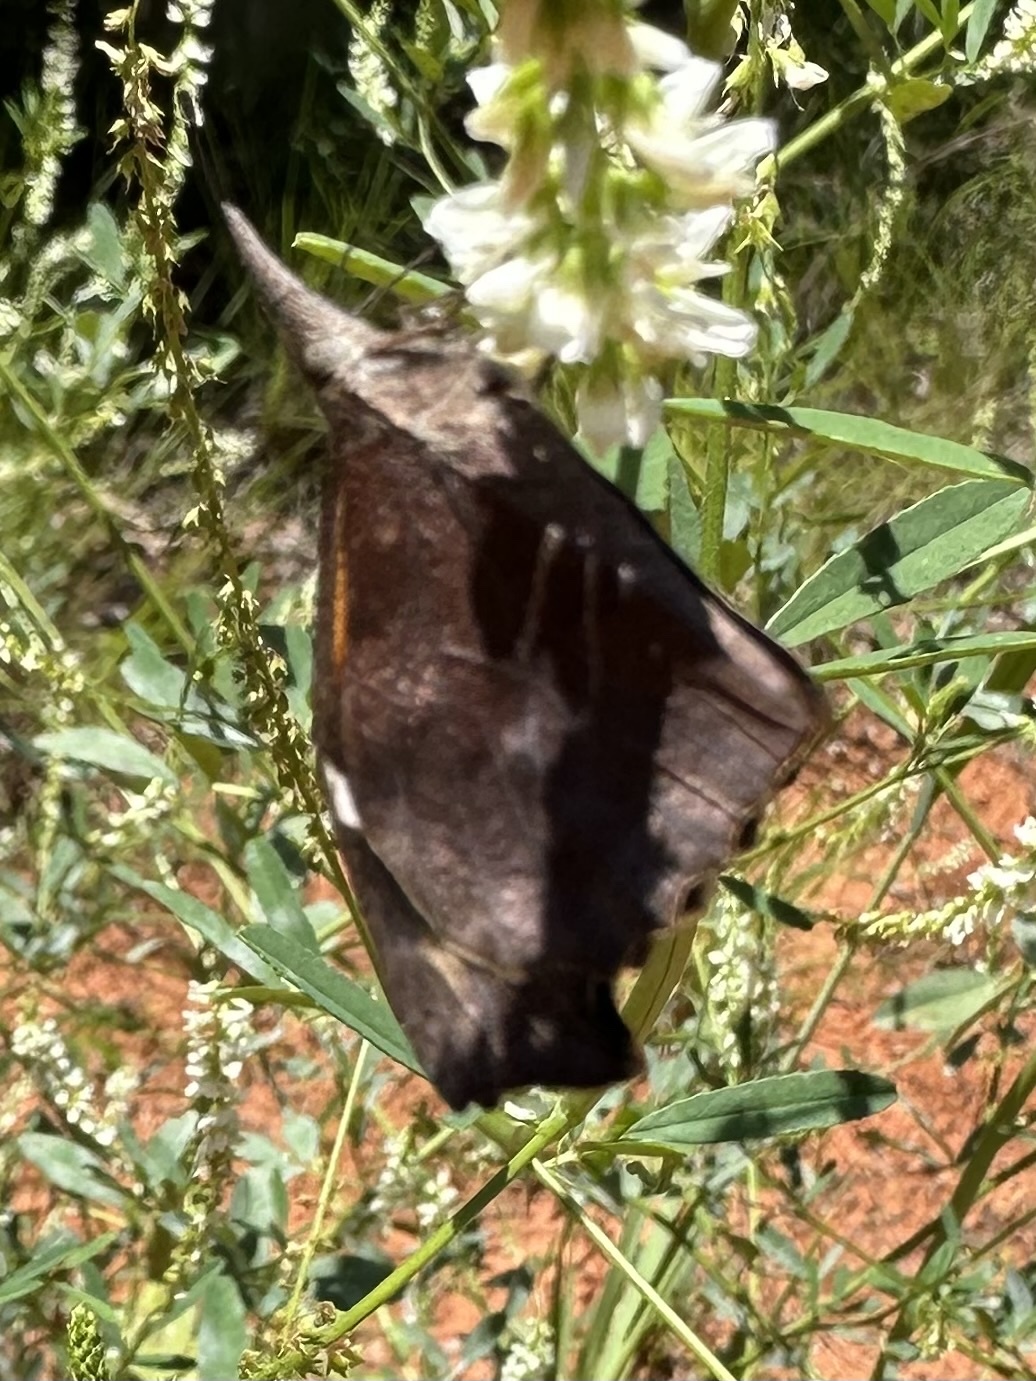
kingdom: Animalia
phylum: Arthropoda
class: Insecta
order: Lepidoptera
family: Nymphalidae
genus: Libytheana
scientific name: Libytheana carinenta
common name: American snout
